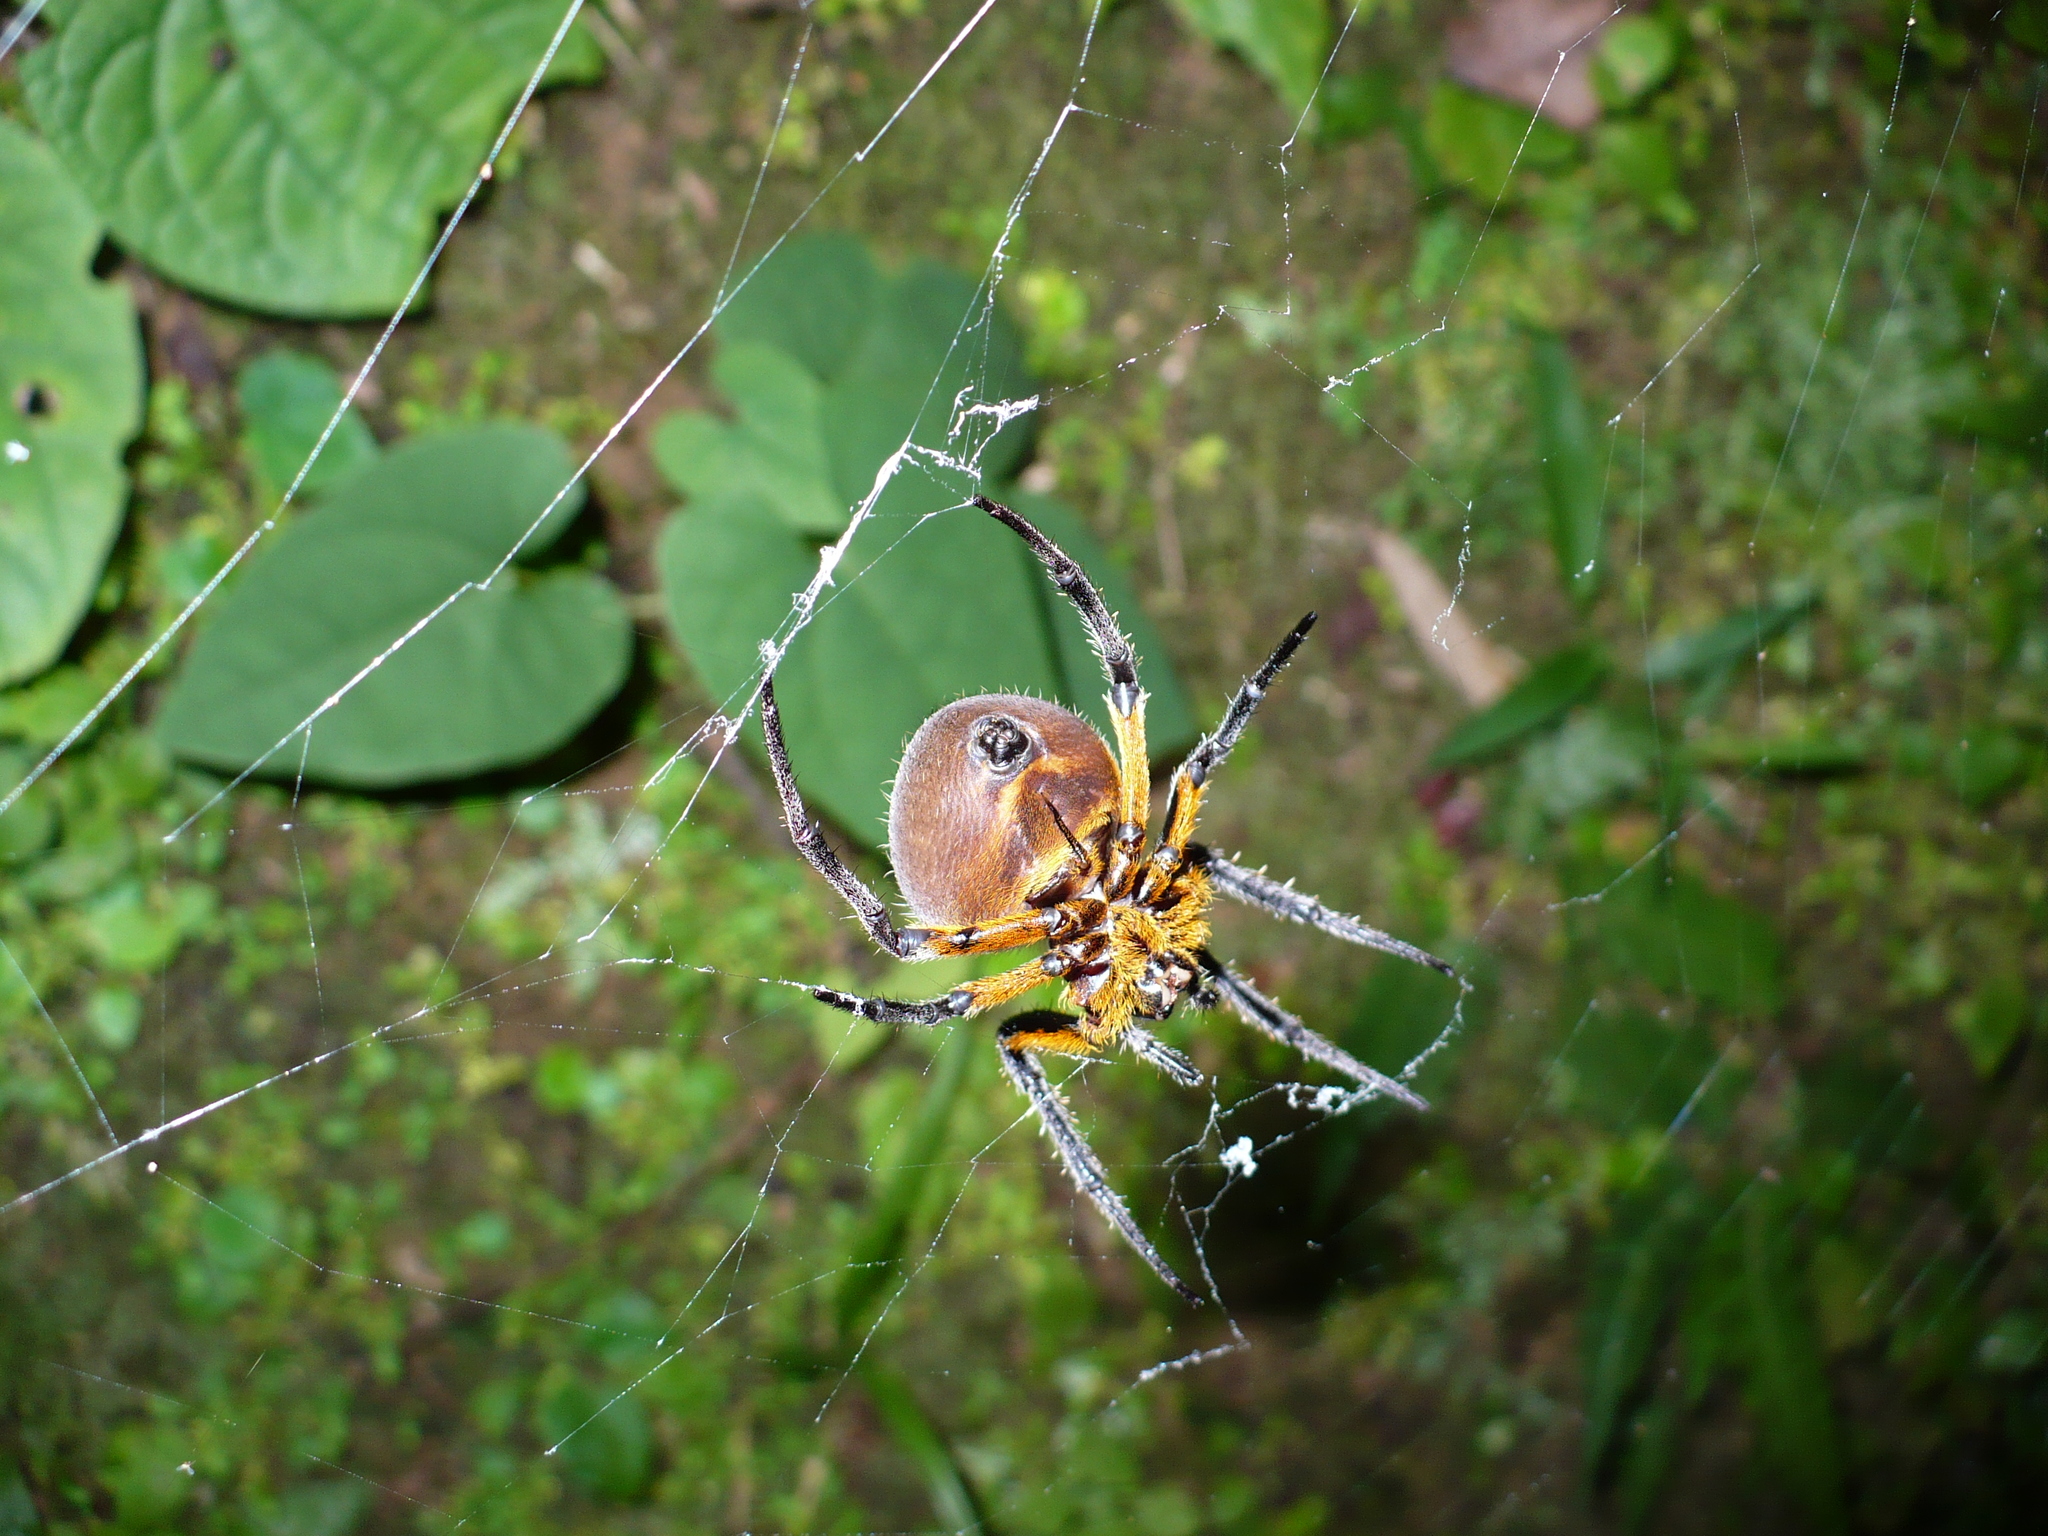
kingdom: Animalia
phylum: Arthropoda
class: Arachnida
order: Araneae
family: Araneidae
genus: Eriophora
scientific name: Eriophora fuliginea
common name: Orb weavers
